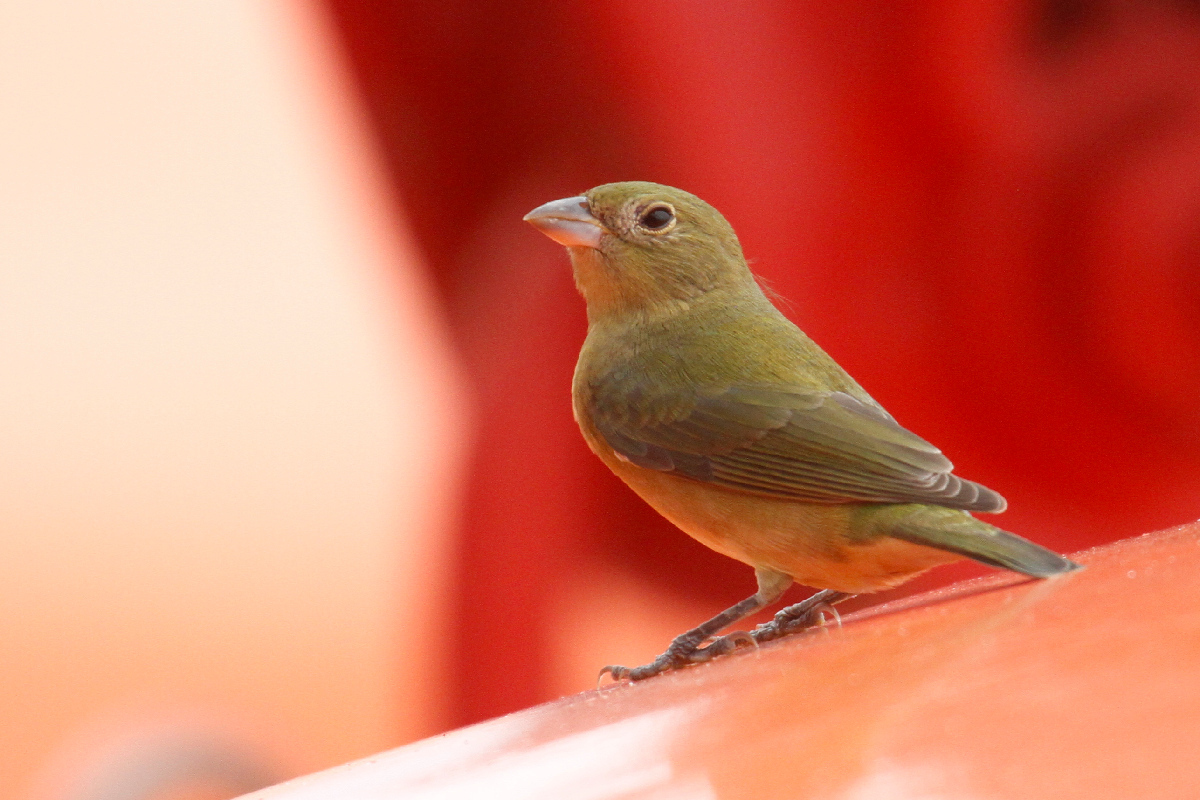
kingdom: Animalia
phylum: Chordata
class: Aves
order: Passeriformes
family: Cardinalidae
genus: Passerina
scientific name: Passerina ciris
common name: Painted bunting
